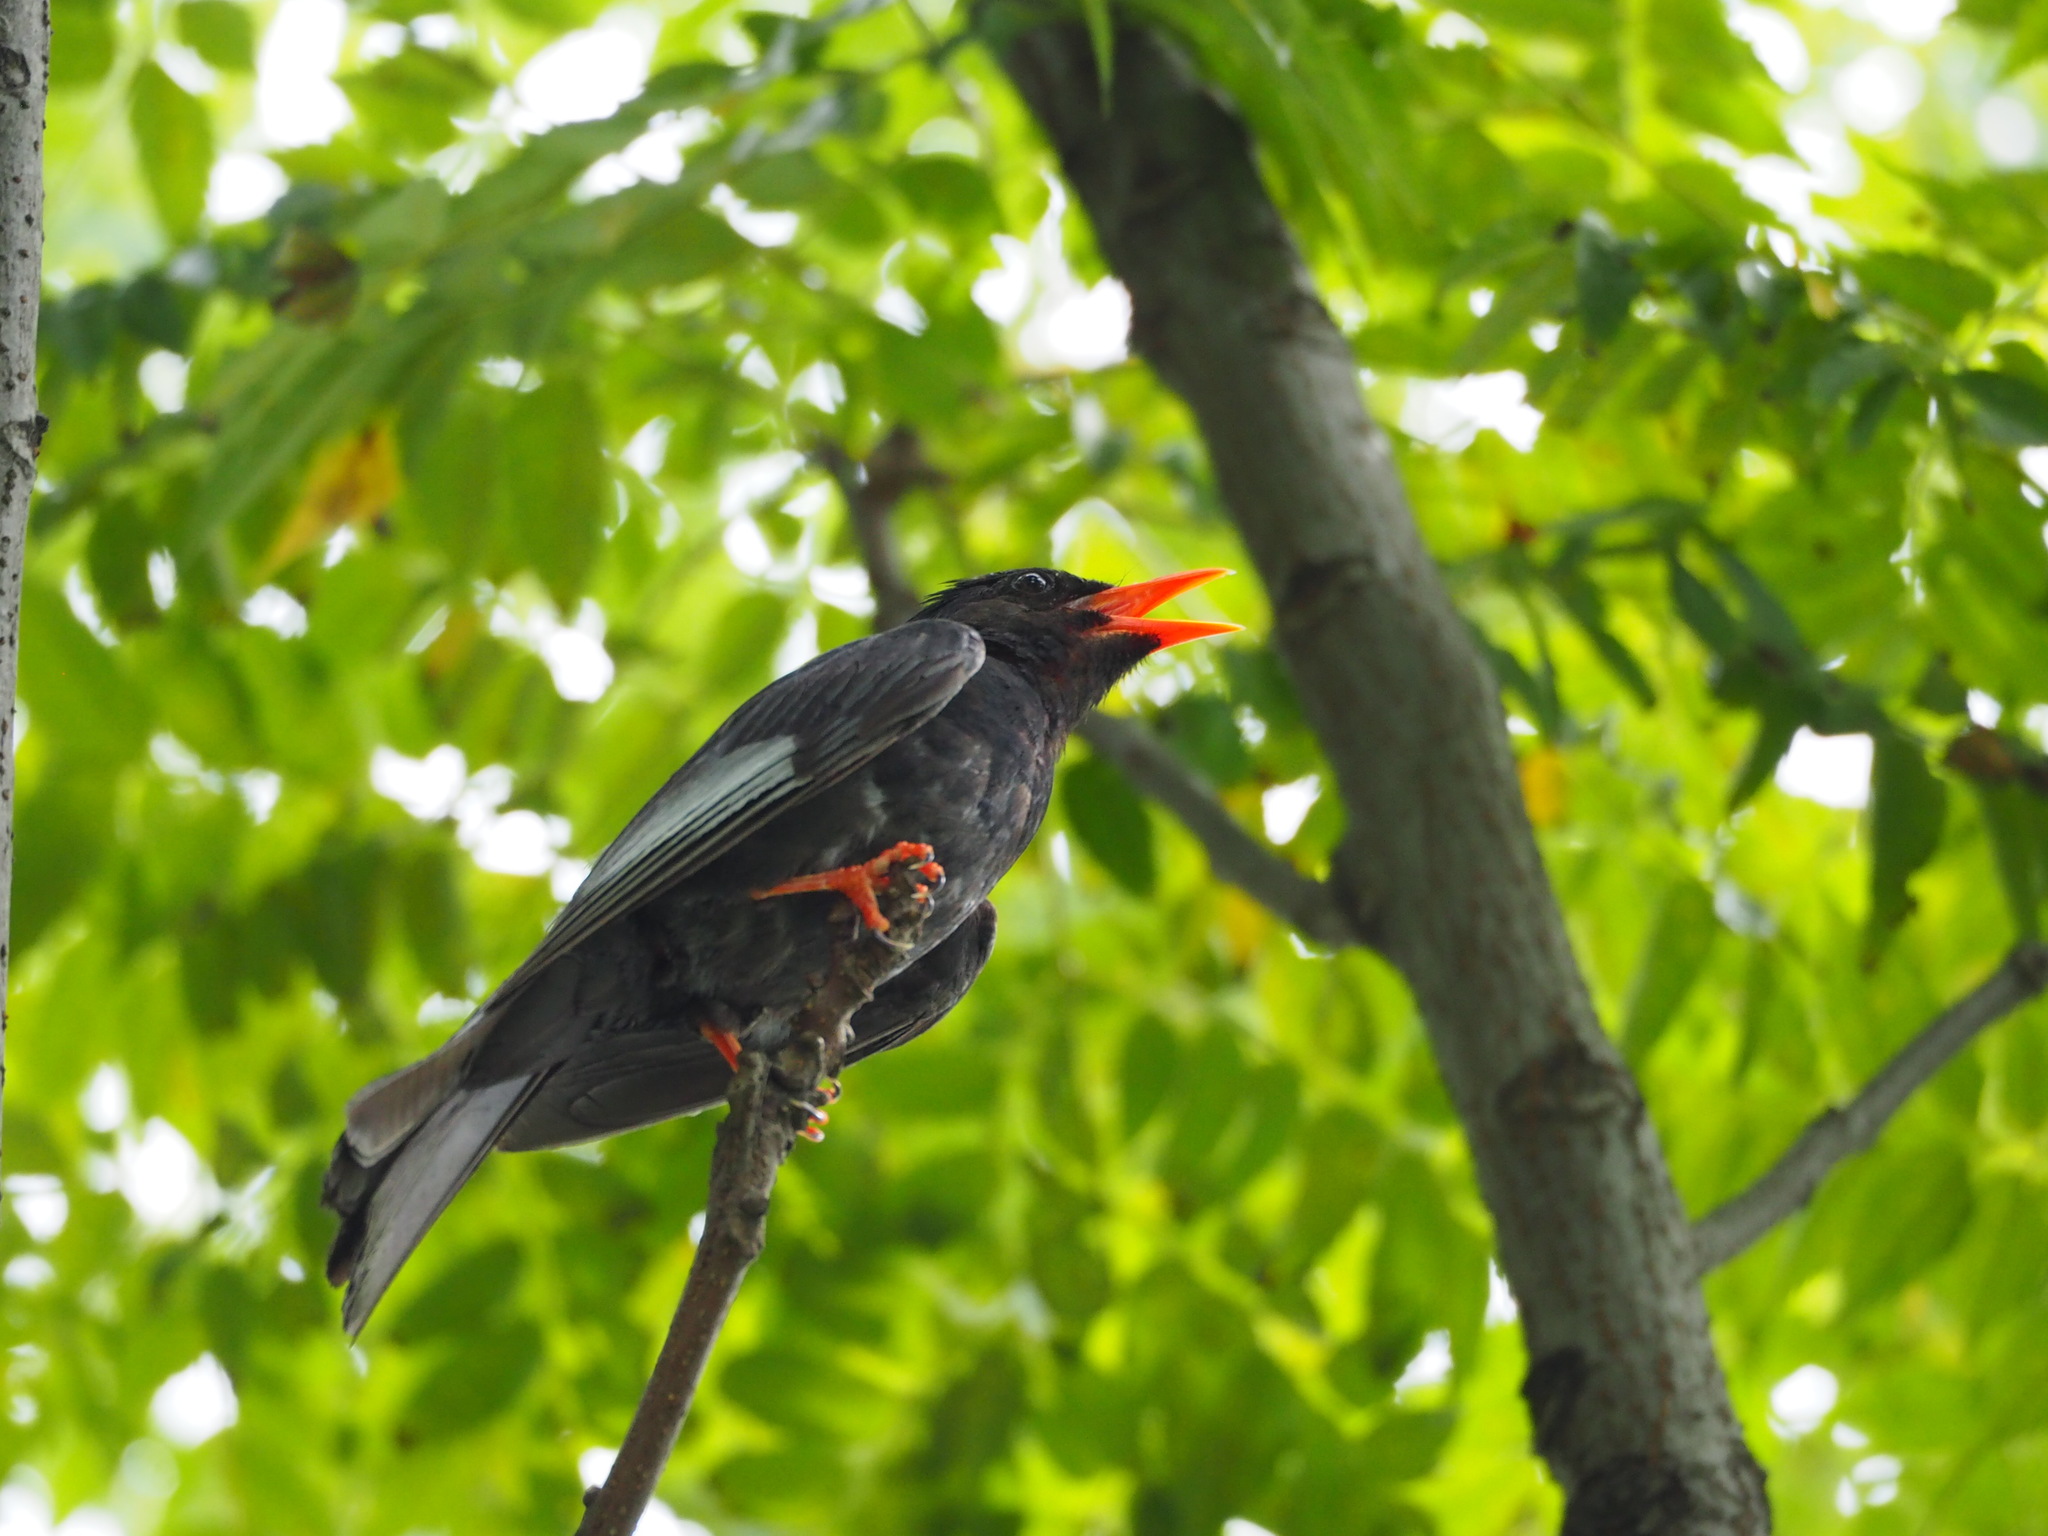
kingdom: Animalia
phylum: Chordata
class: Aves
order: Passeriformes
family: Pycnonotidae
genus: Hypsipetes
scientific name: Hypsipetes leucocephalus
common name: Black bulbul
